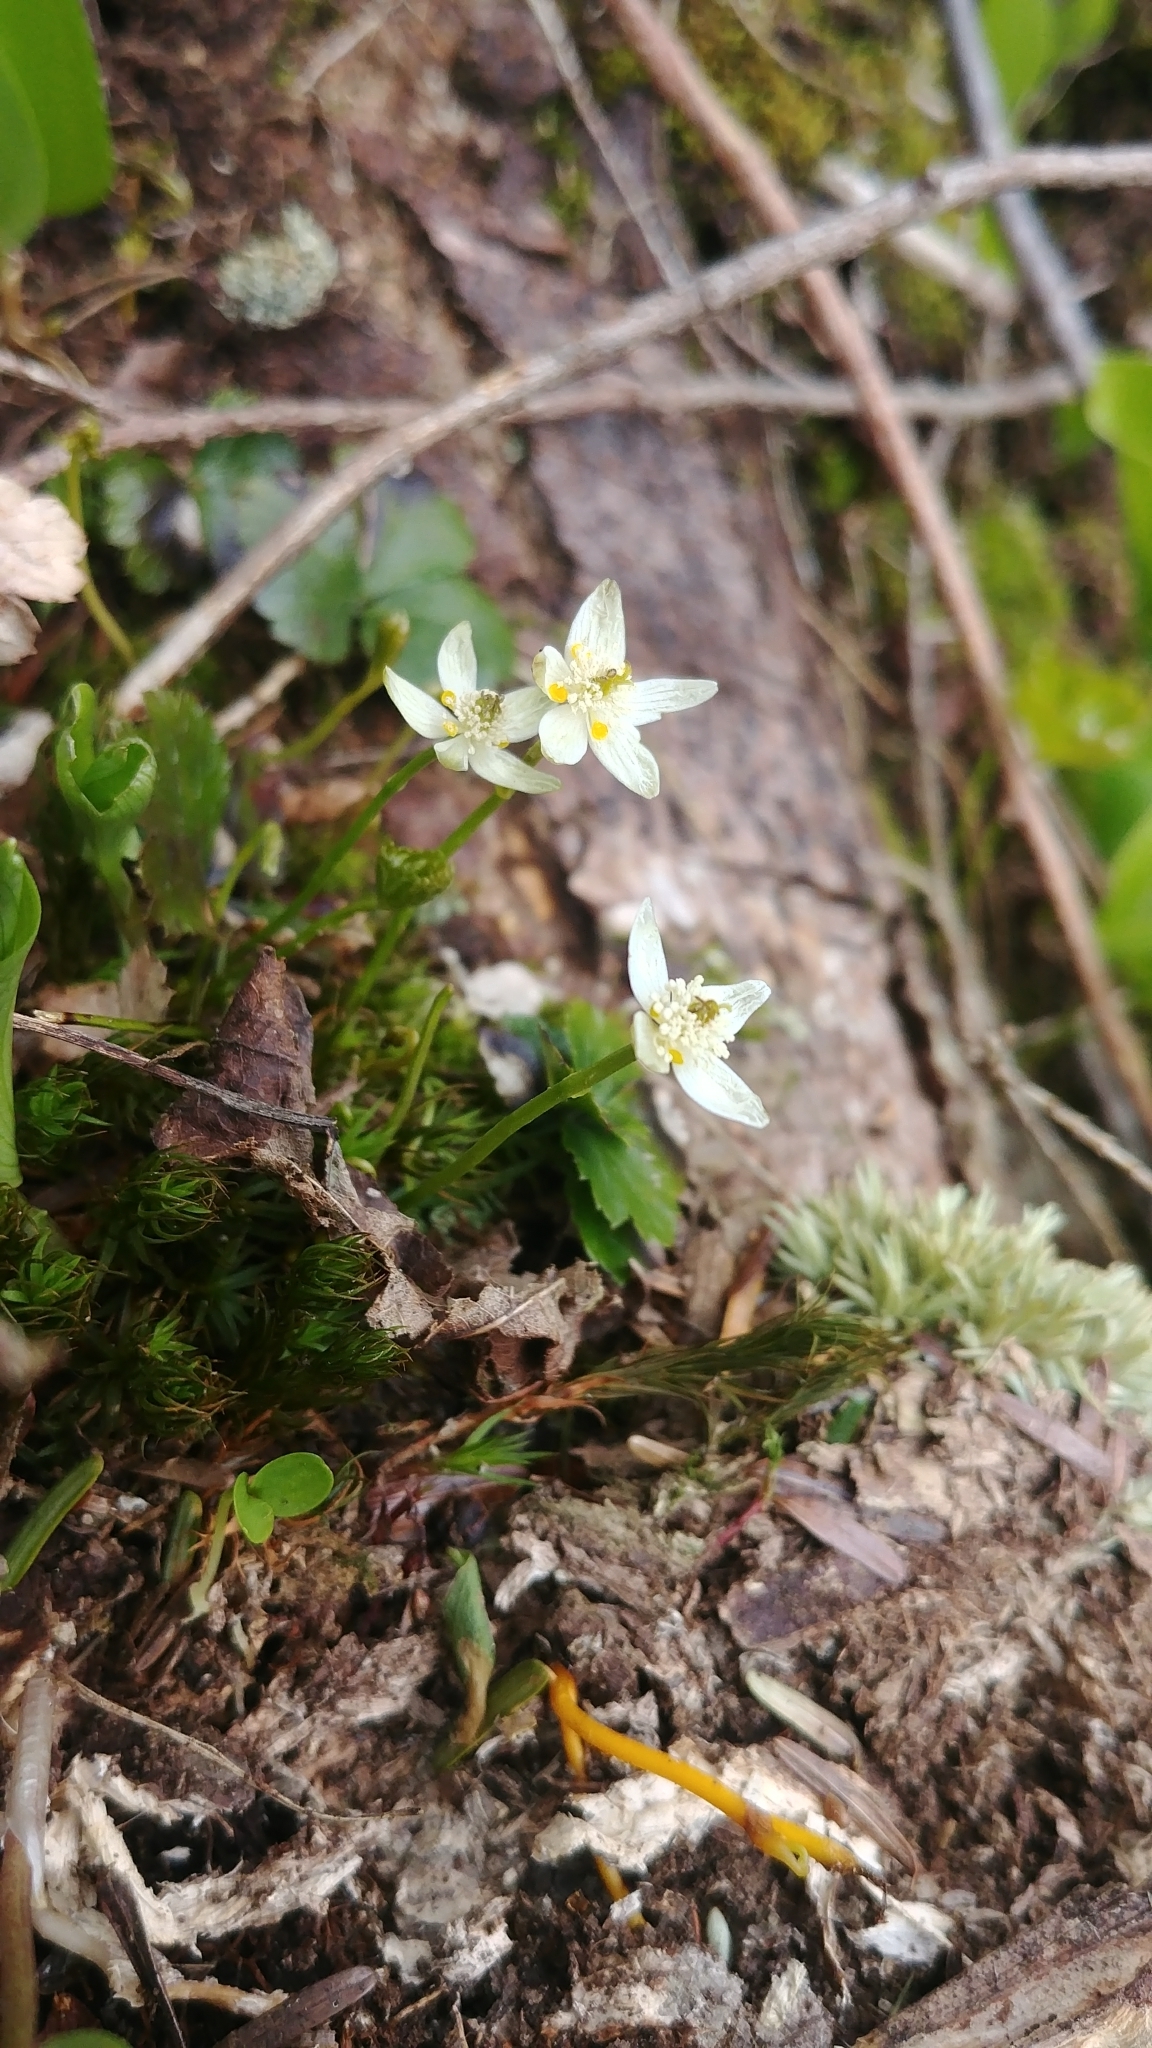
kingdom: Plantae
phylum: Tracheophyta
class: Magnoliopsida
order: Ranunculales
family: Ranunculaceae
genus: Coptis
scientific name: Coptis trifolia
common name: Canker-root
